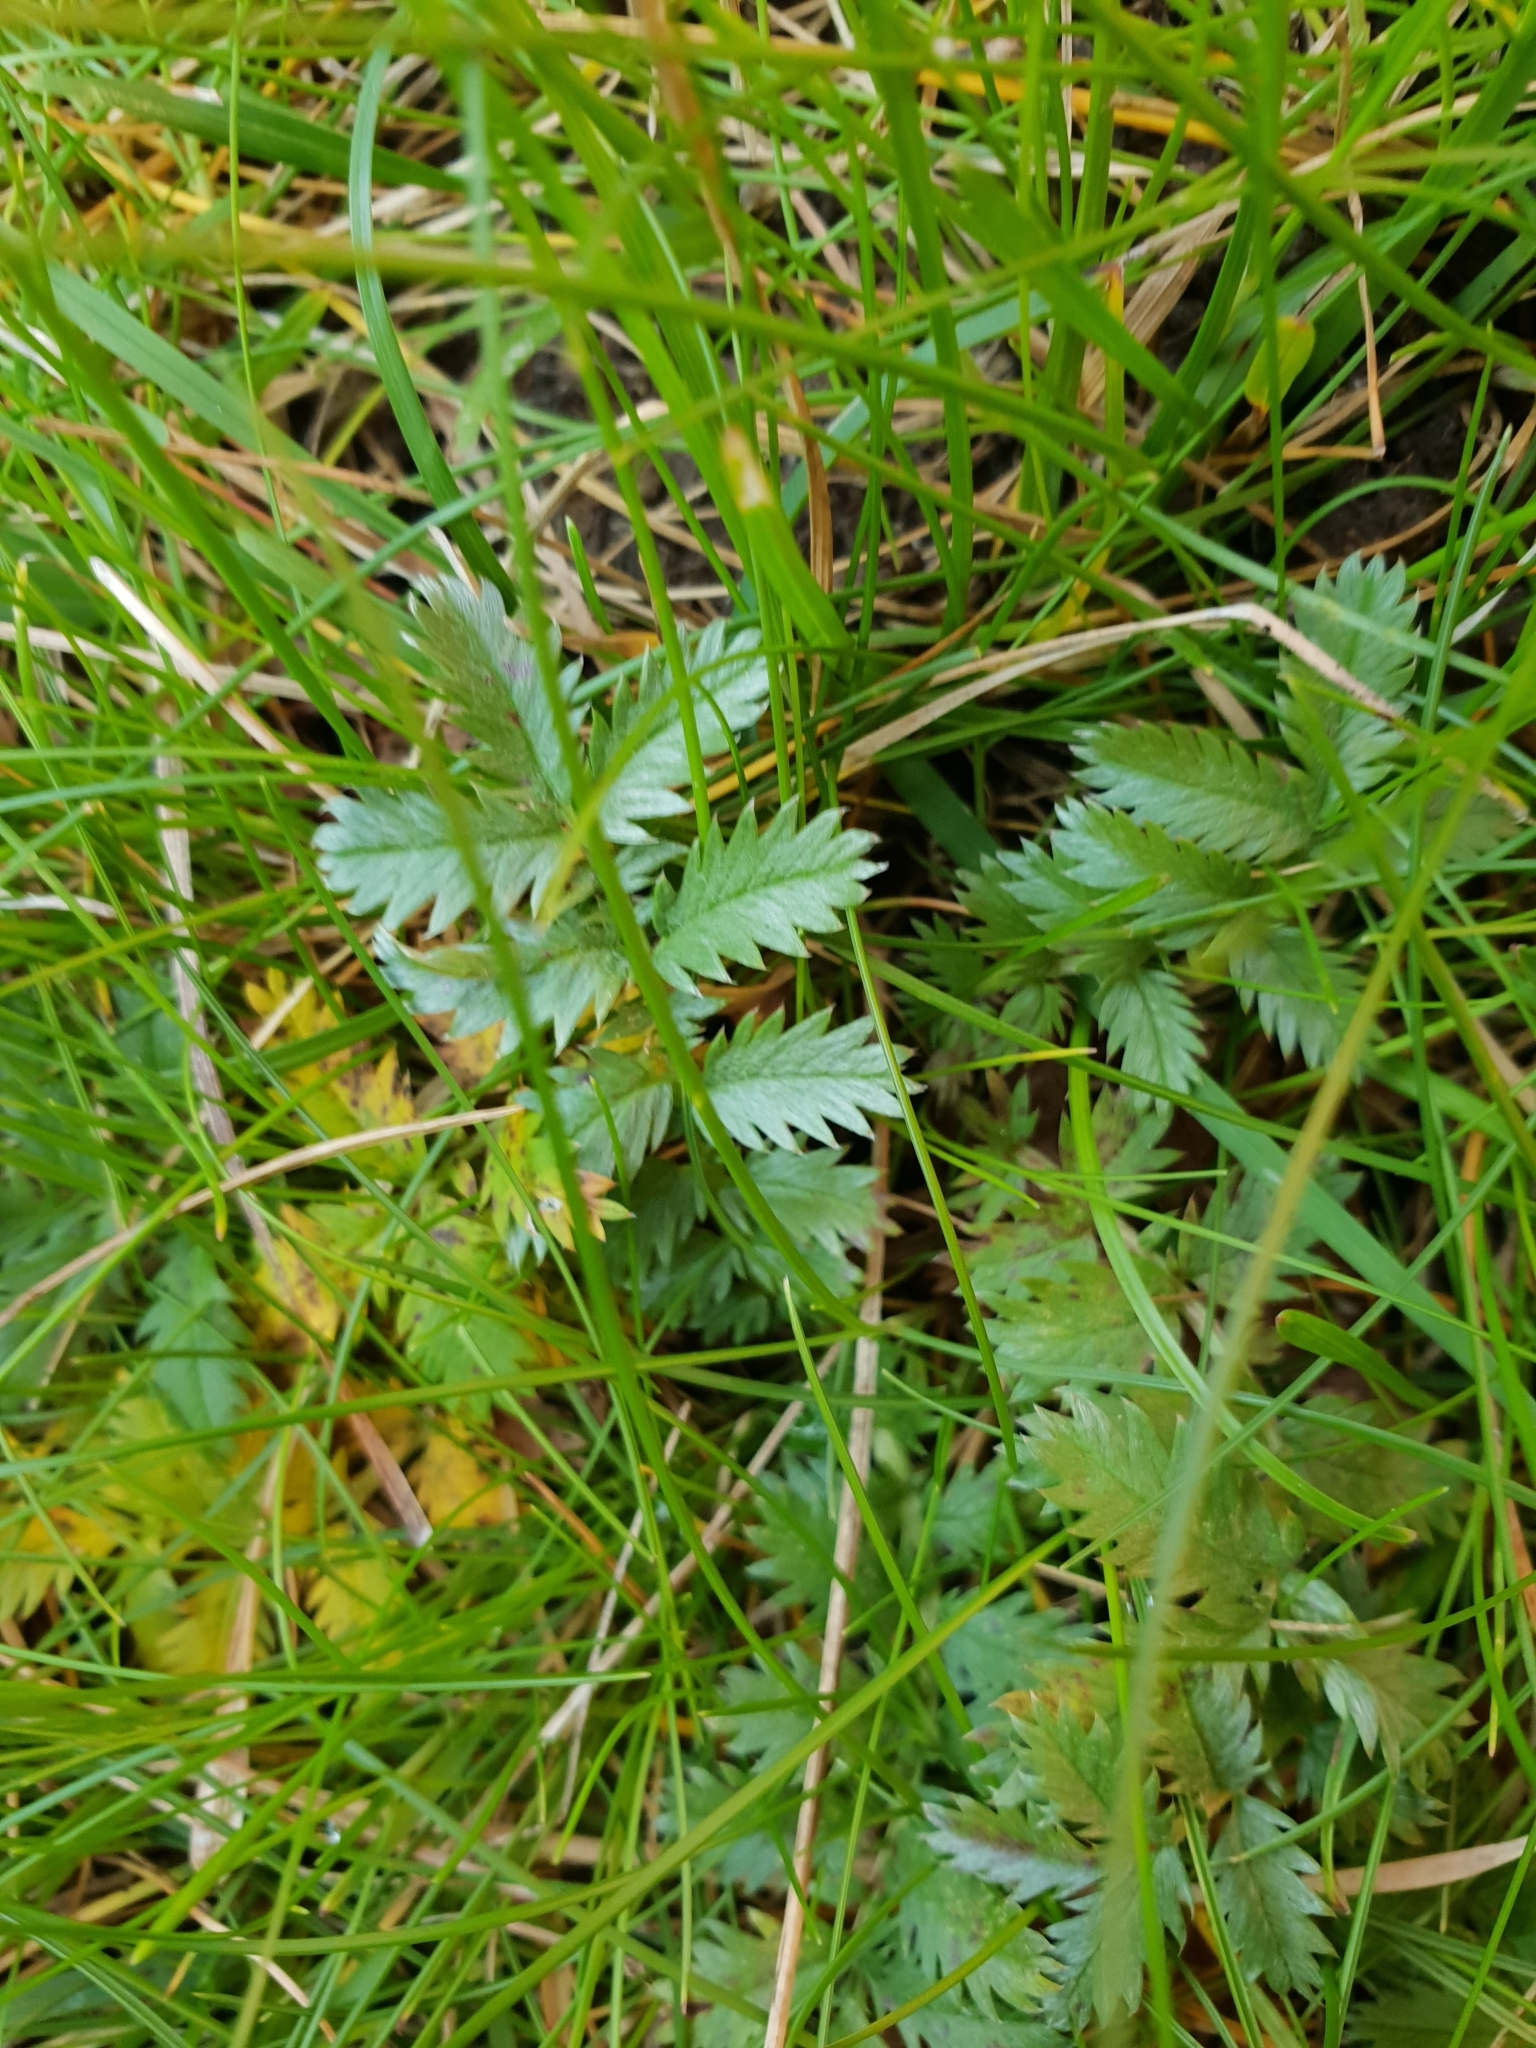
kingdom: Plantae
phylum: Tracheophyta
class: Magnoliopsida
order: Rosales
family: Rosaceae
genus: Argentina
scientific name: Argentina anserina
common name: Common silverweed
